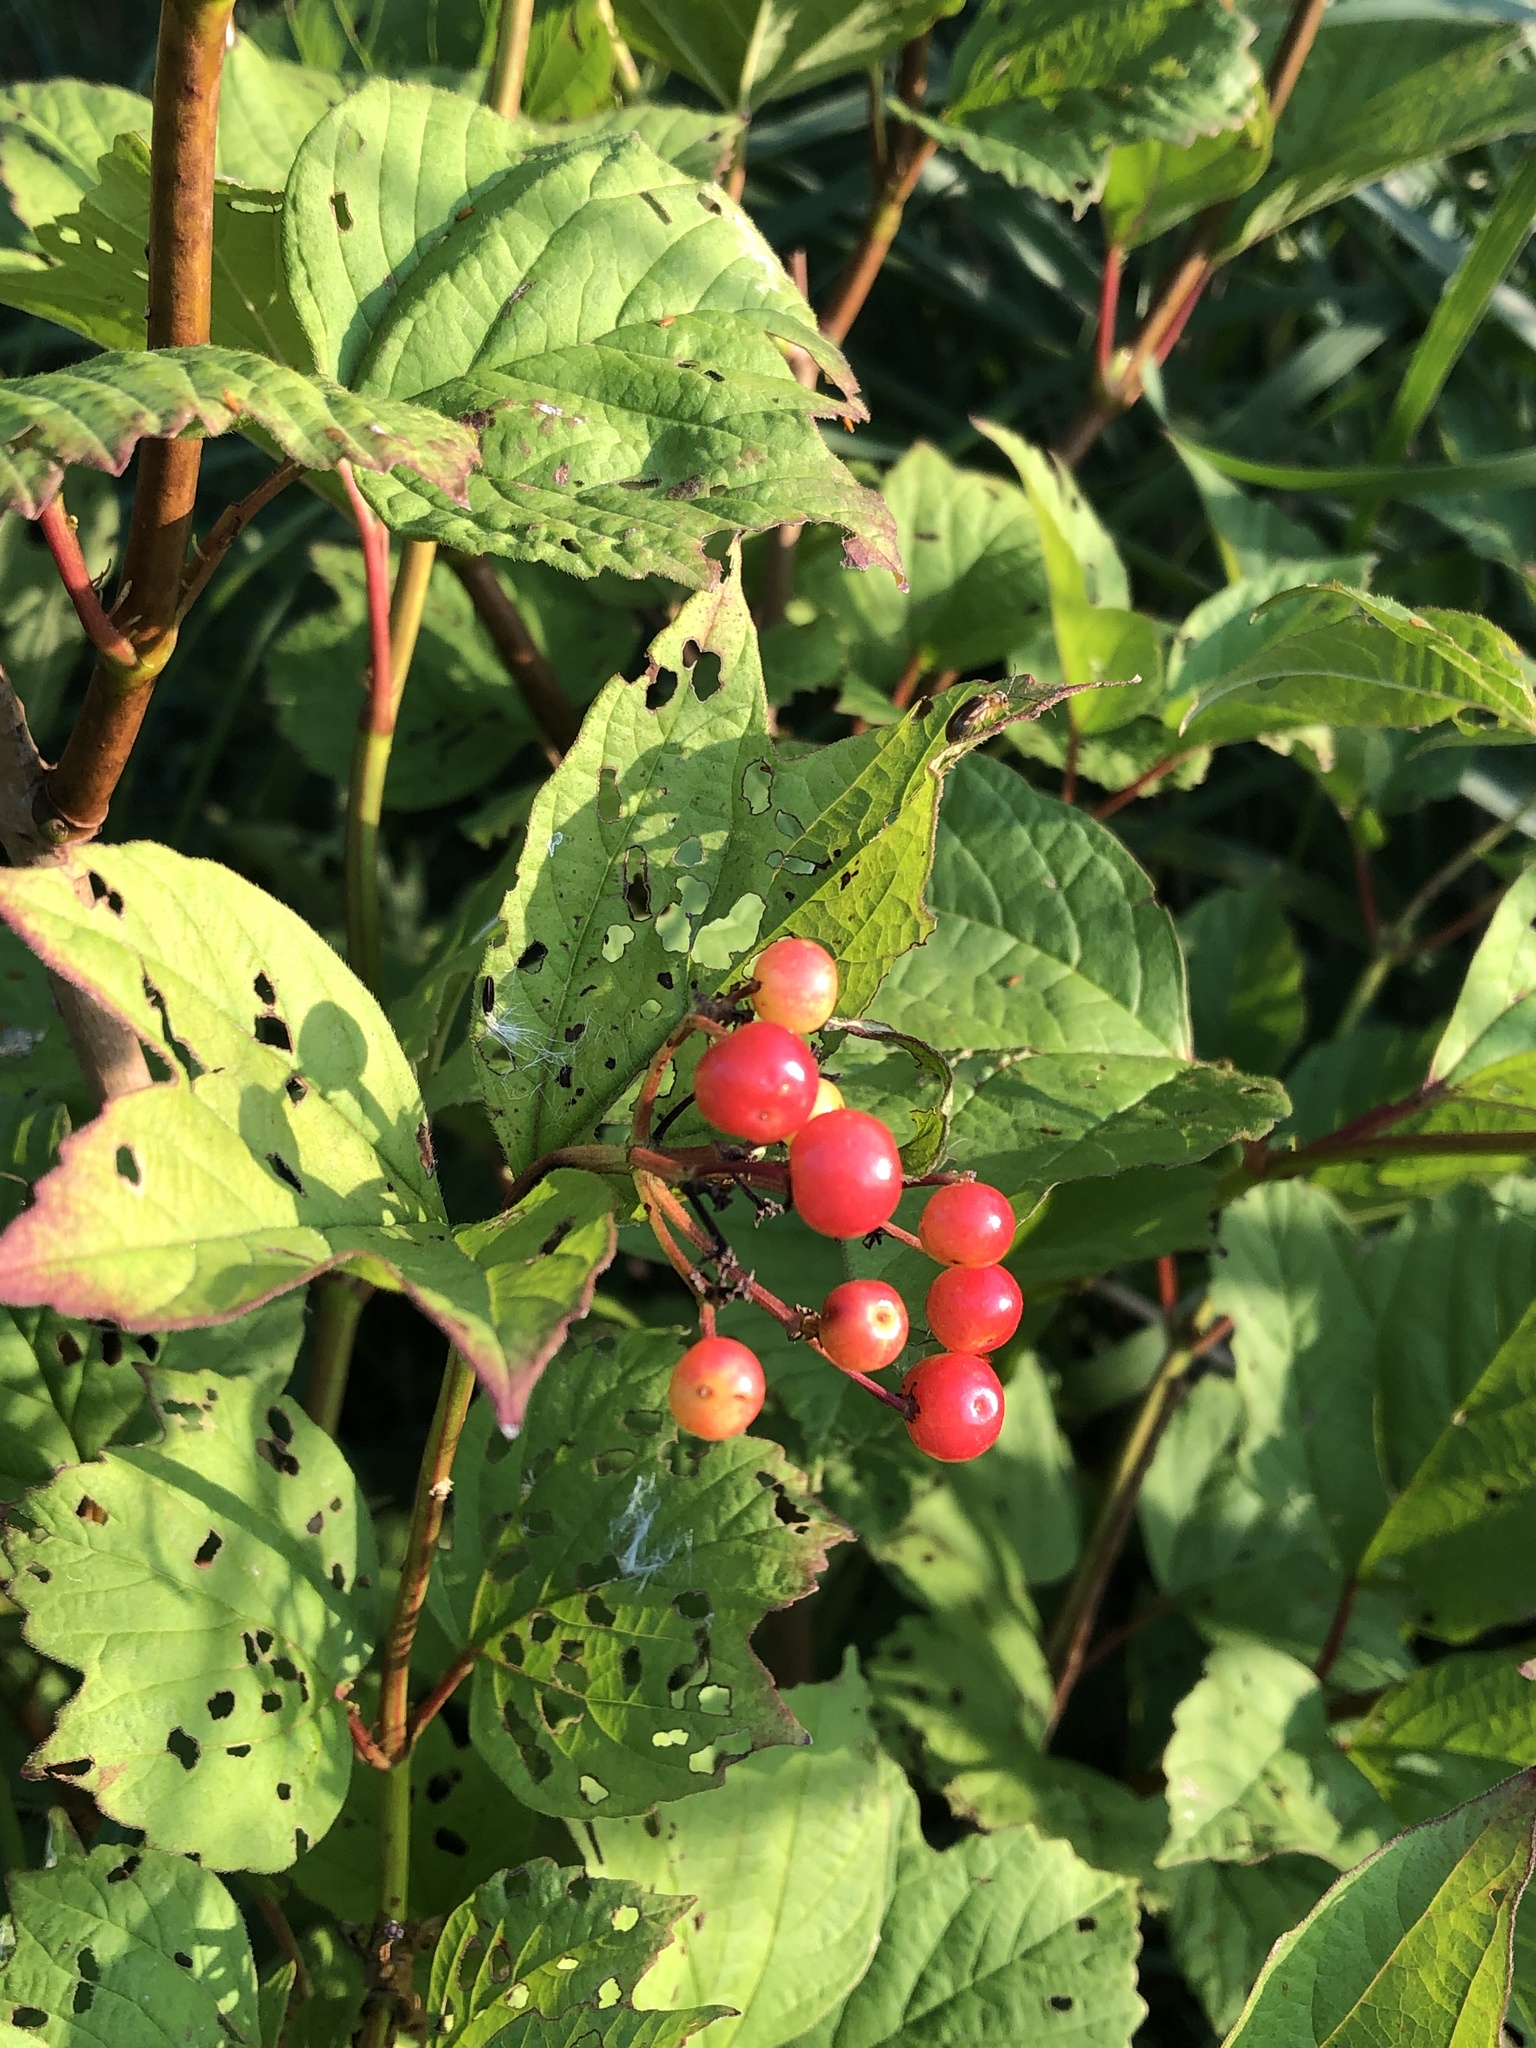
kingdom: Plantae
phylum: Tracheophyta
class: Magnoliopsida
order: Dipsacales
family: Viburnaceae
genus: Viburnum
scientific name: Viburnum opulus
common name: Guelder-rose
